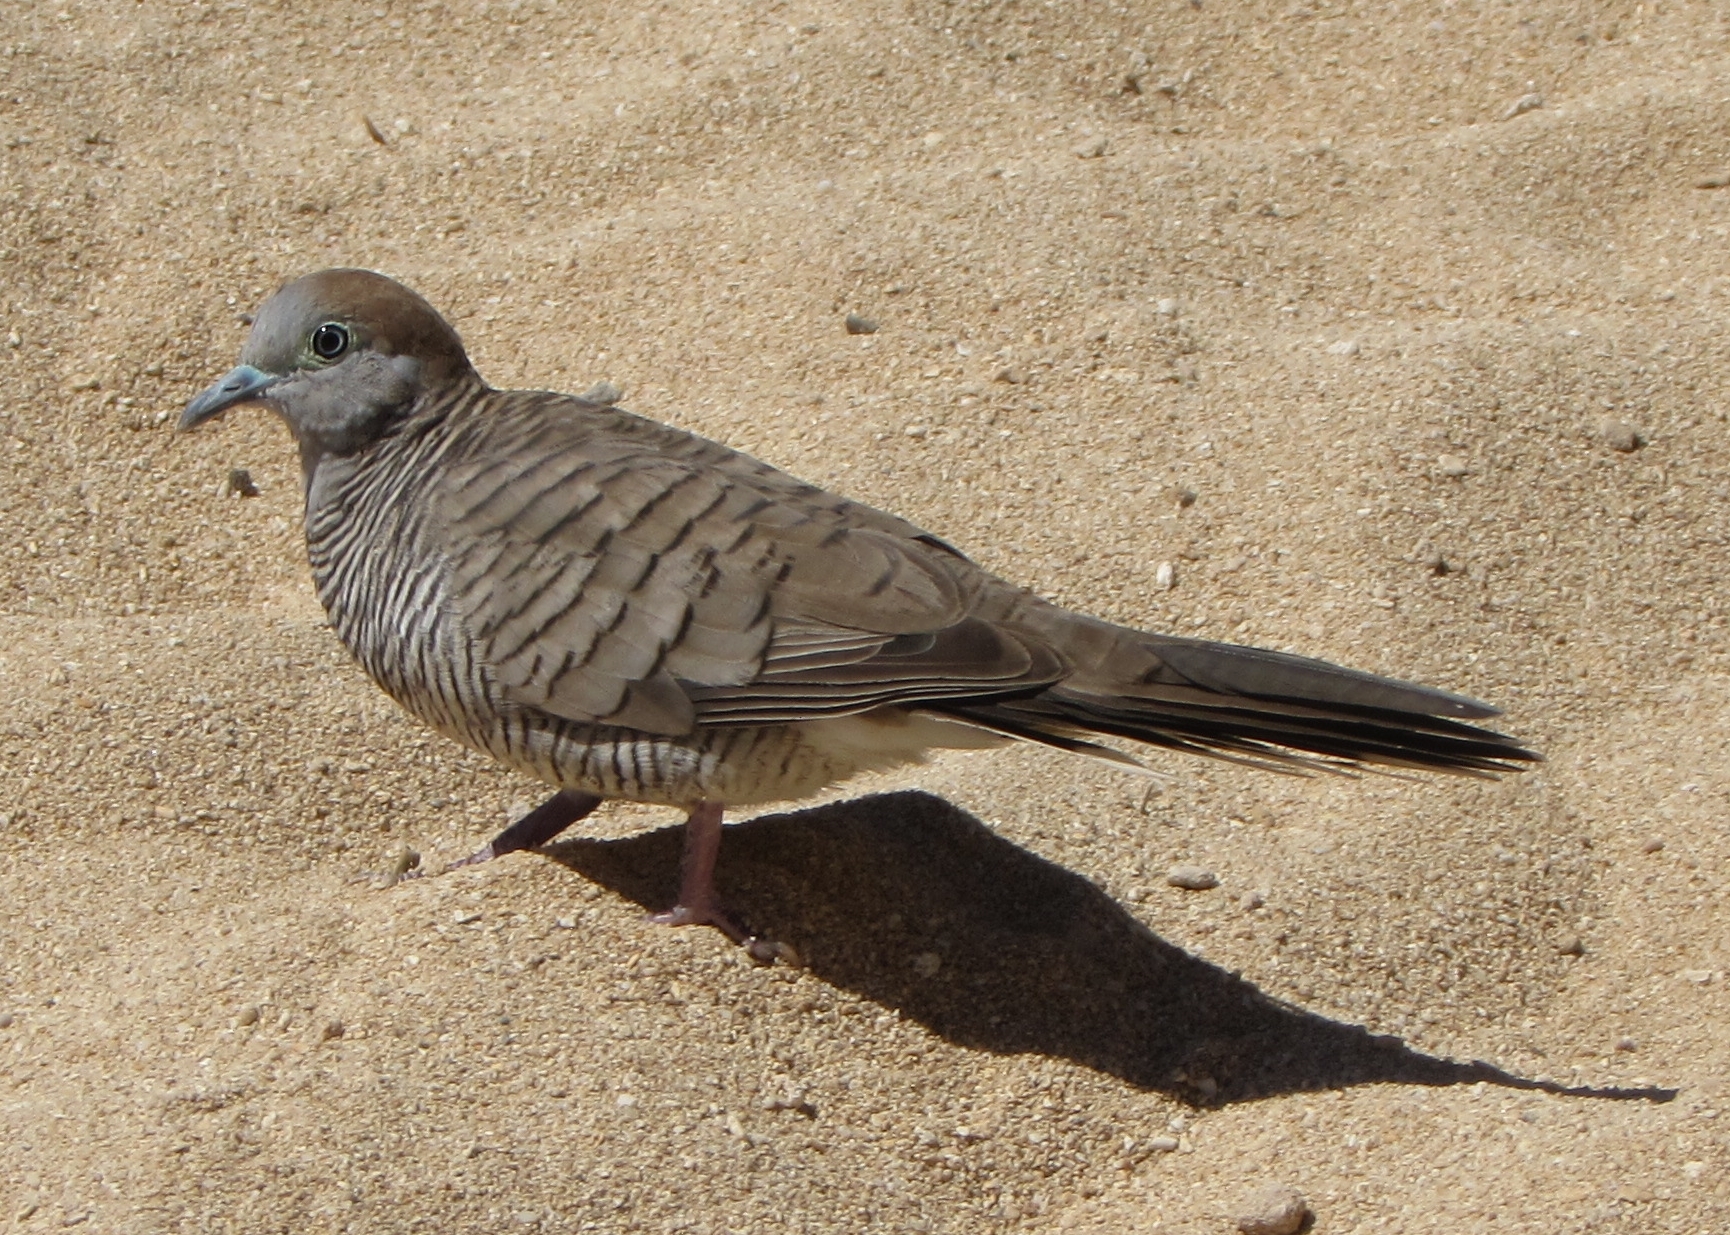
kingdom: Animalia
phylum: Chordata
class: Aves
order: Columbiformes
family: Columbidae
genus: Geopelia
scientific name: Geopelia striata
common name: Zebra dove
